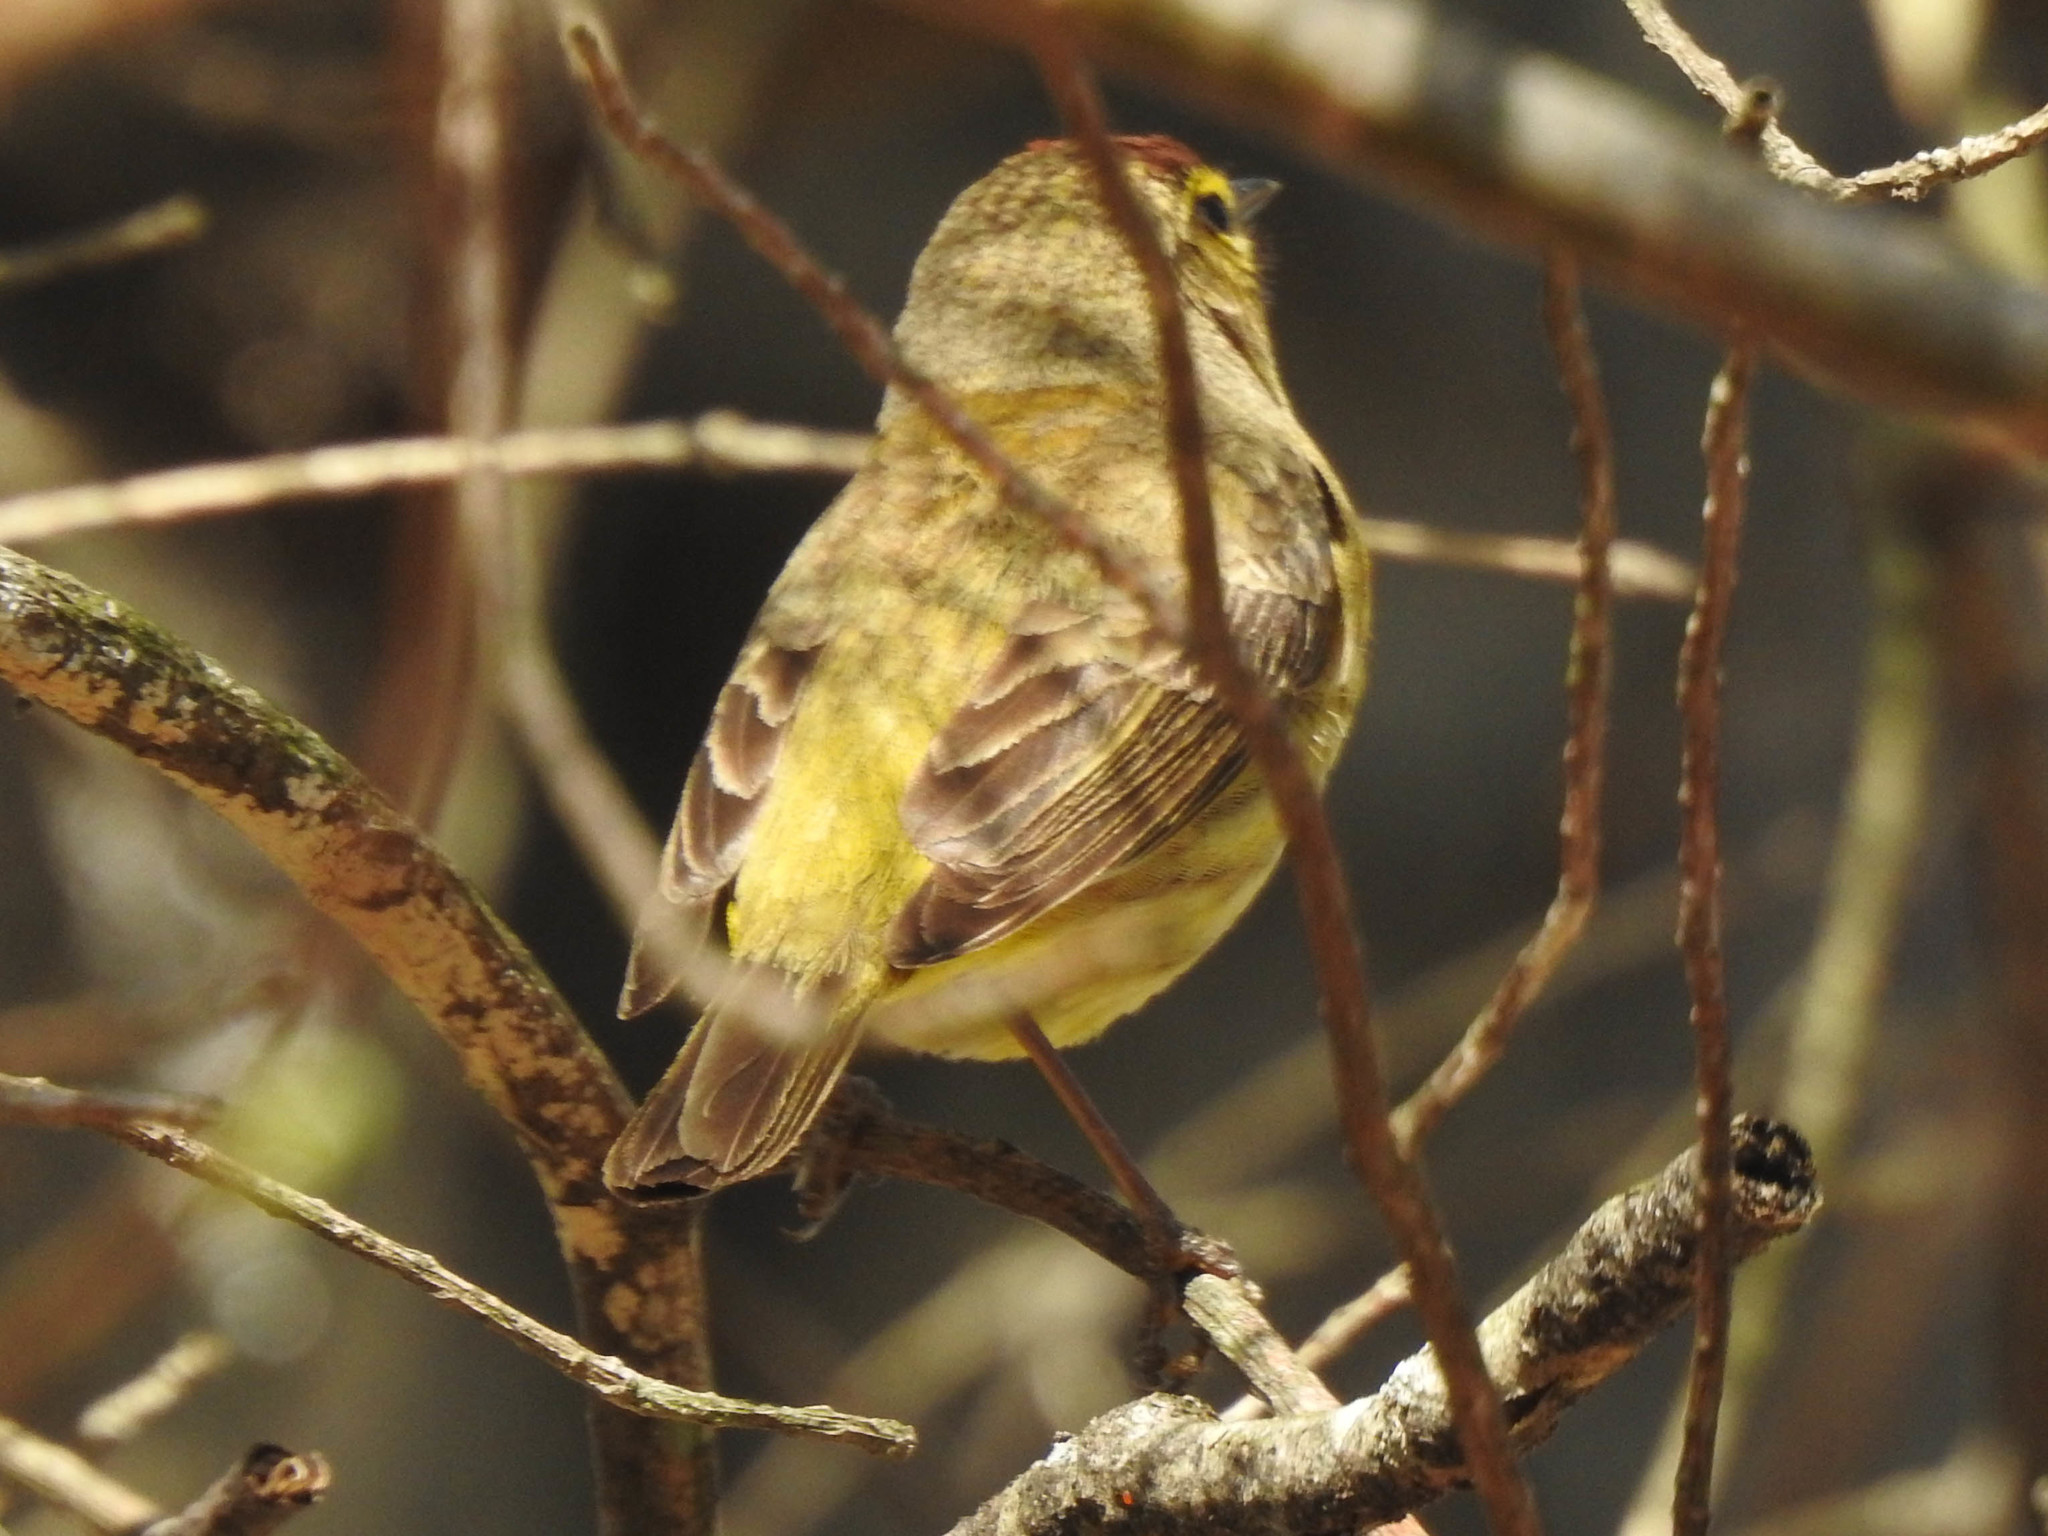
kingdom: Animalia
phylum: Chordata
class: Aves
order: Passeriformes
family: Parulidae
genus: Setophaga
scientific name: Setophaga palmarum
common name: Palm warbler
